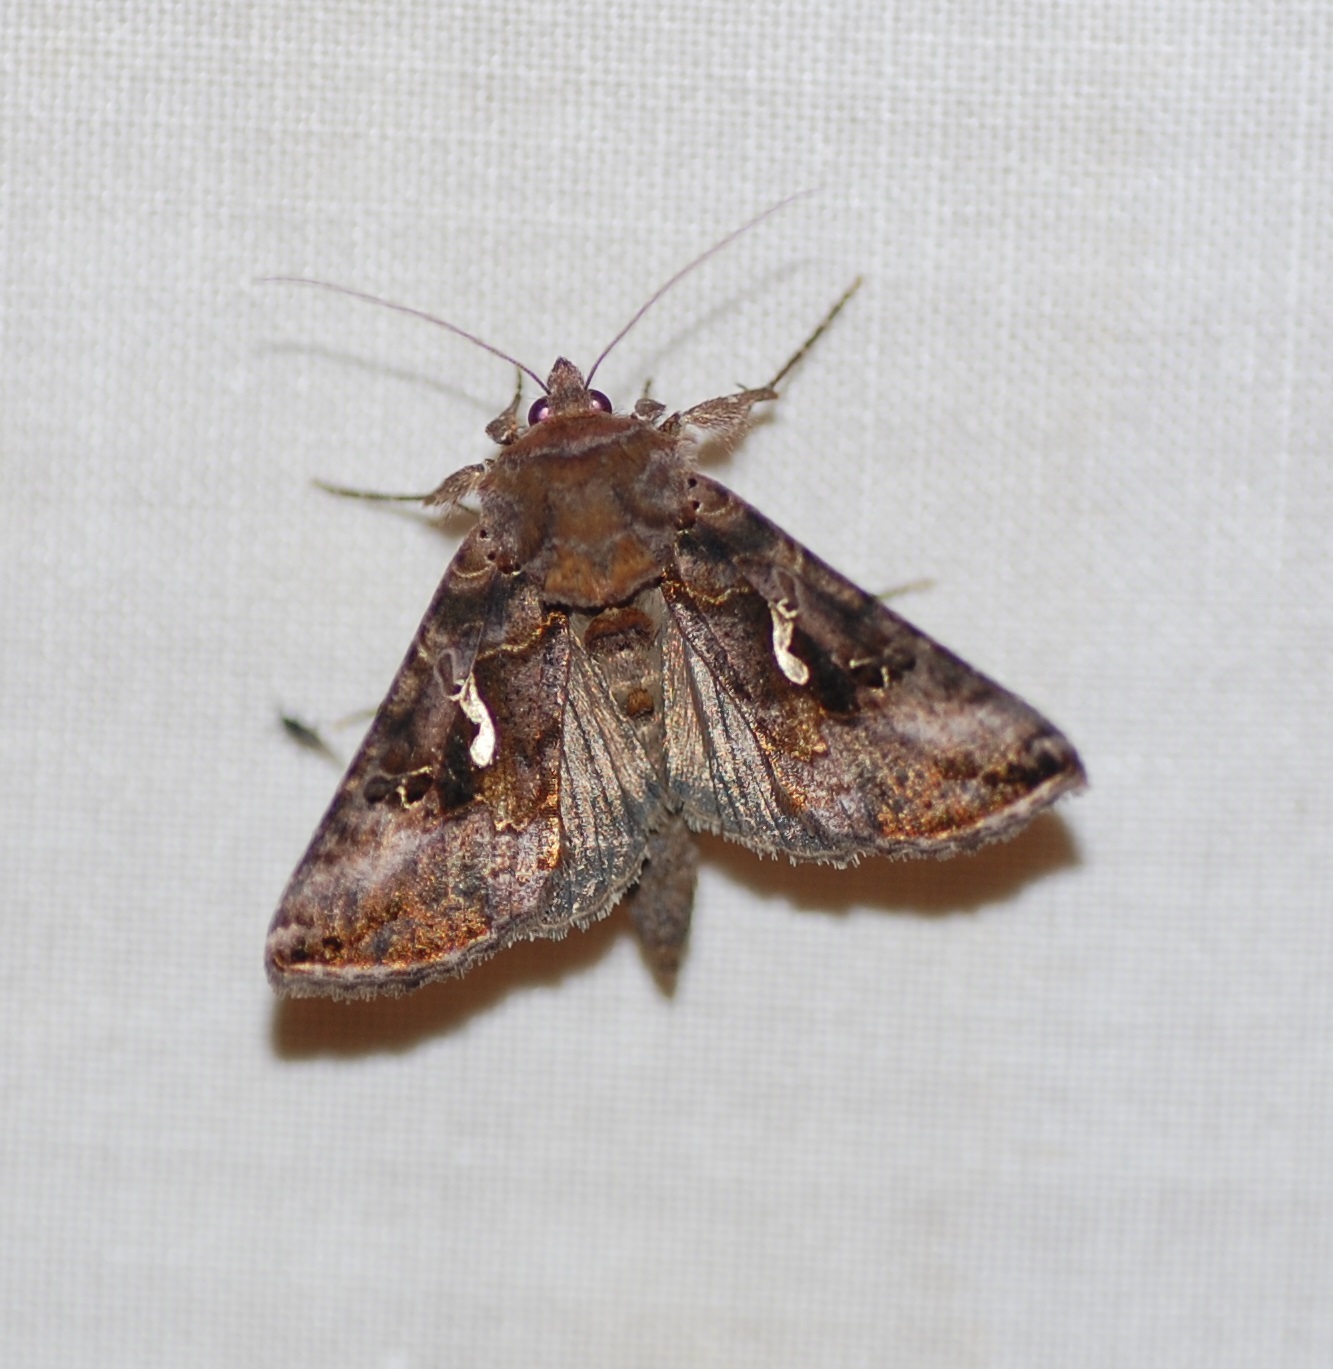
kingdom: Animalia
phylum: Arthropoda
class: Insecta
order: Lepidoptera
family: Noctuidae
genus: Autographa
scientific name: Autographa precationis
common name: Common looper moth
